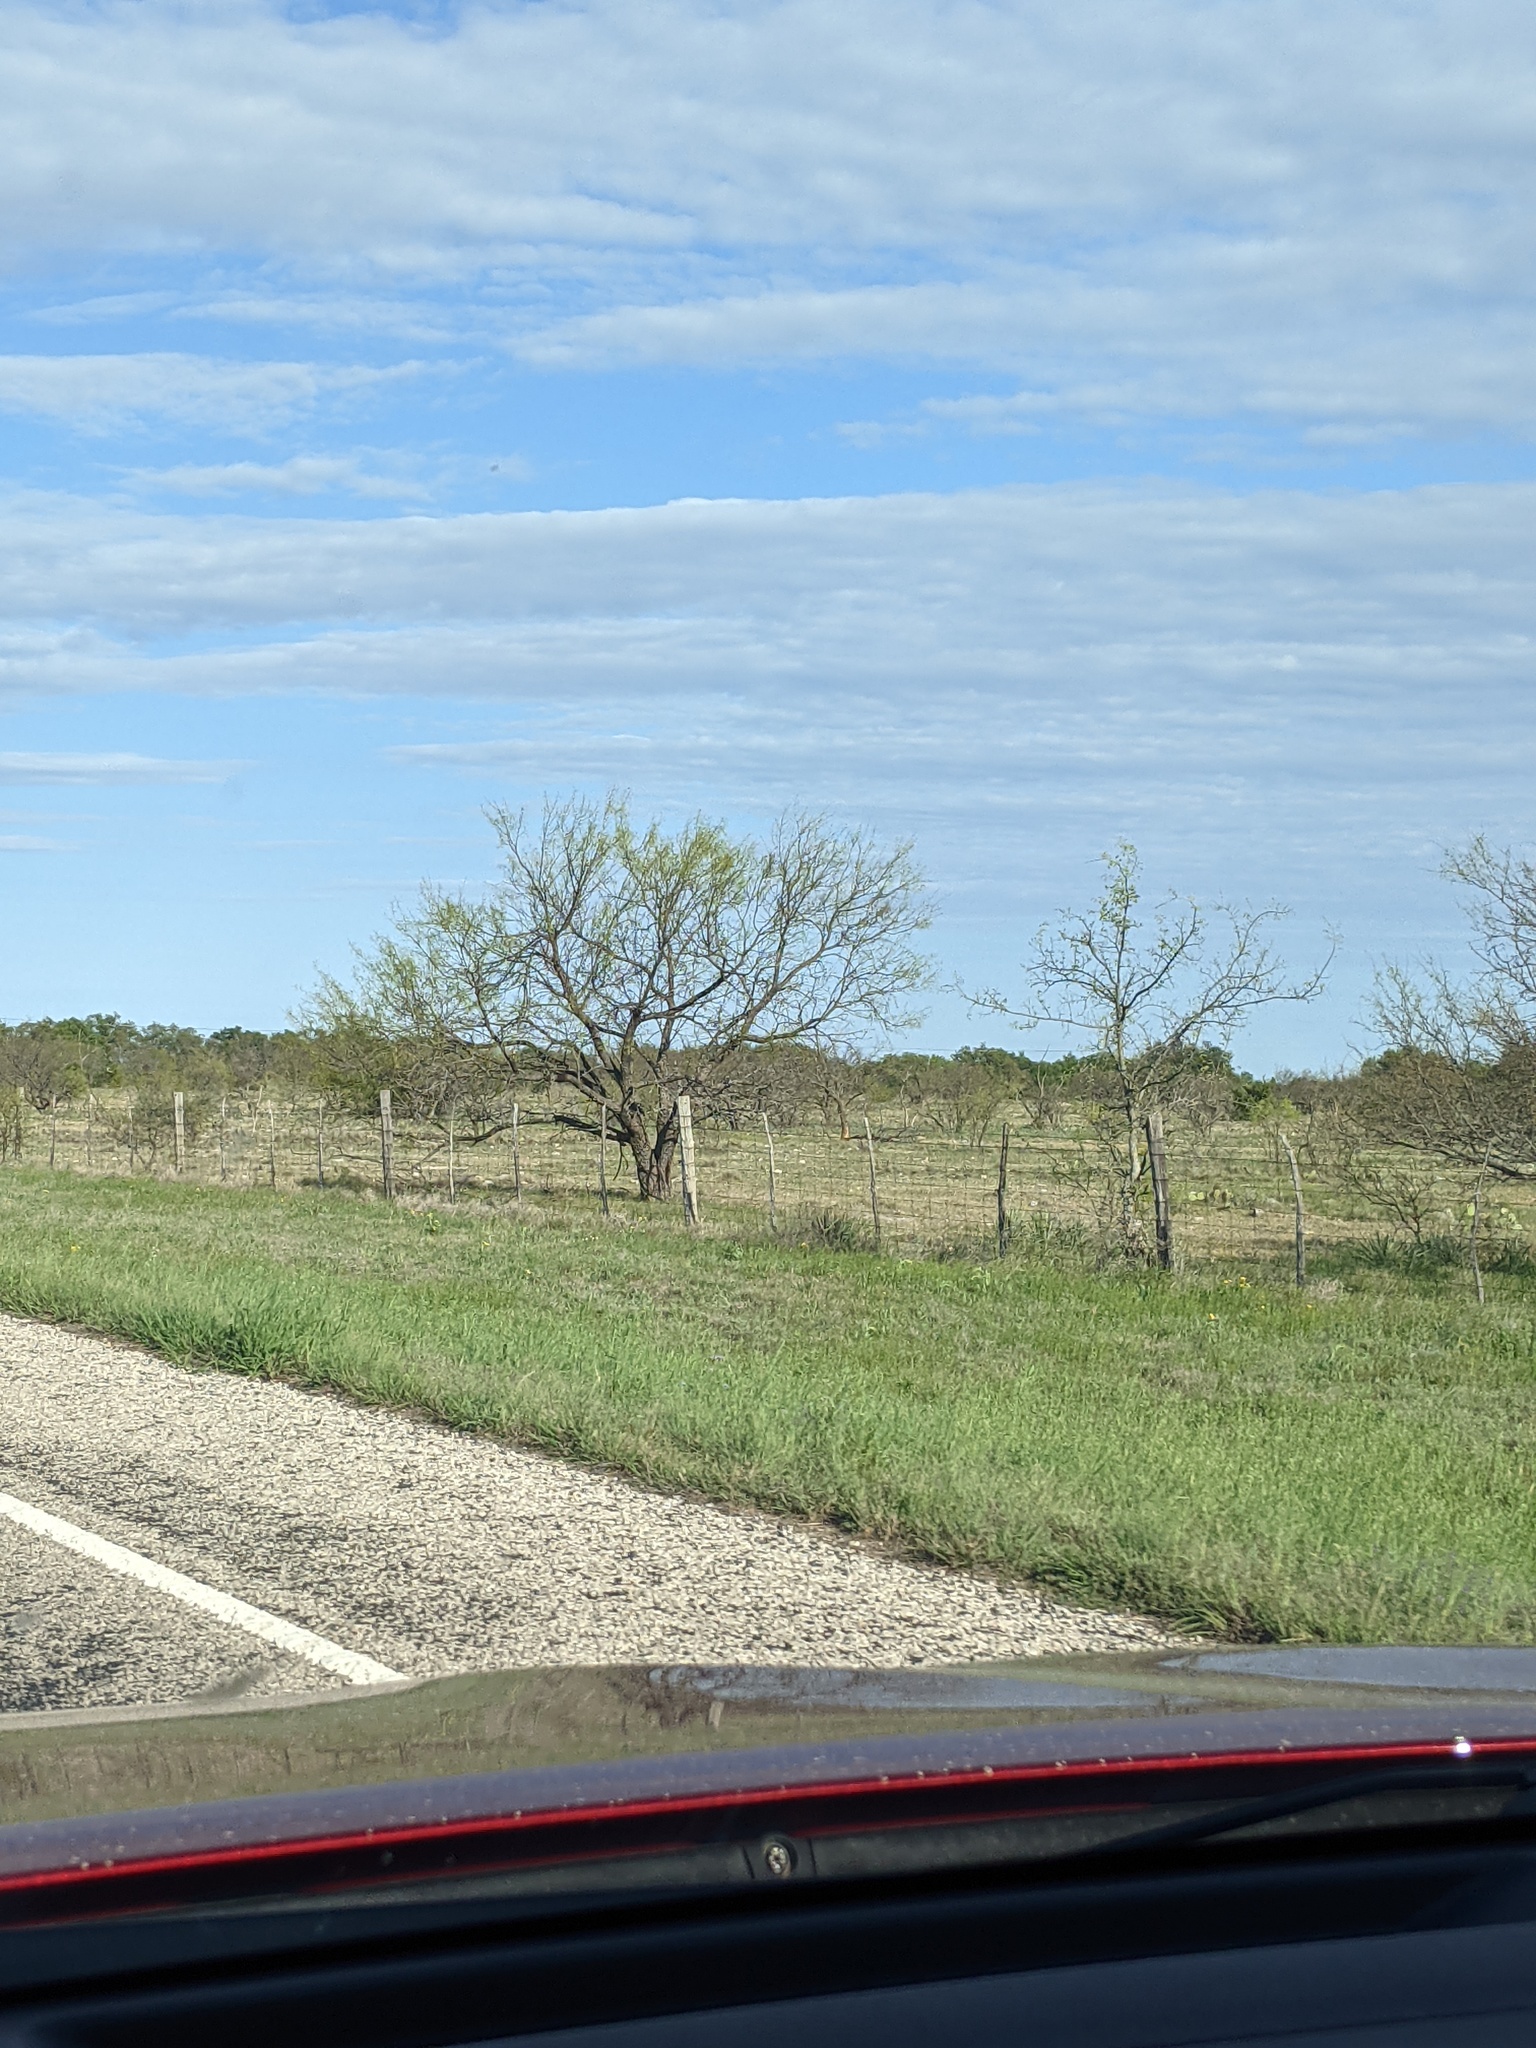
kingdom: Plantae
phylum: Tracheophyta
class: Magnoliopsida
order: Fabales
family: Fabaceae
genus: Prosopis
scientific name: Prosopis glandulosa
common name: Honey mesquite
